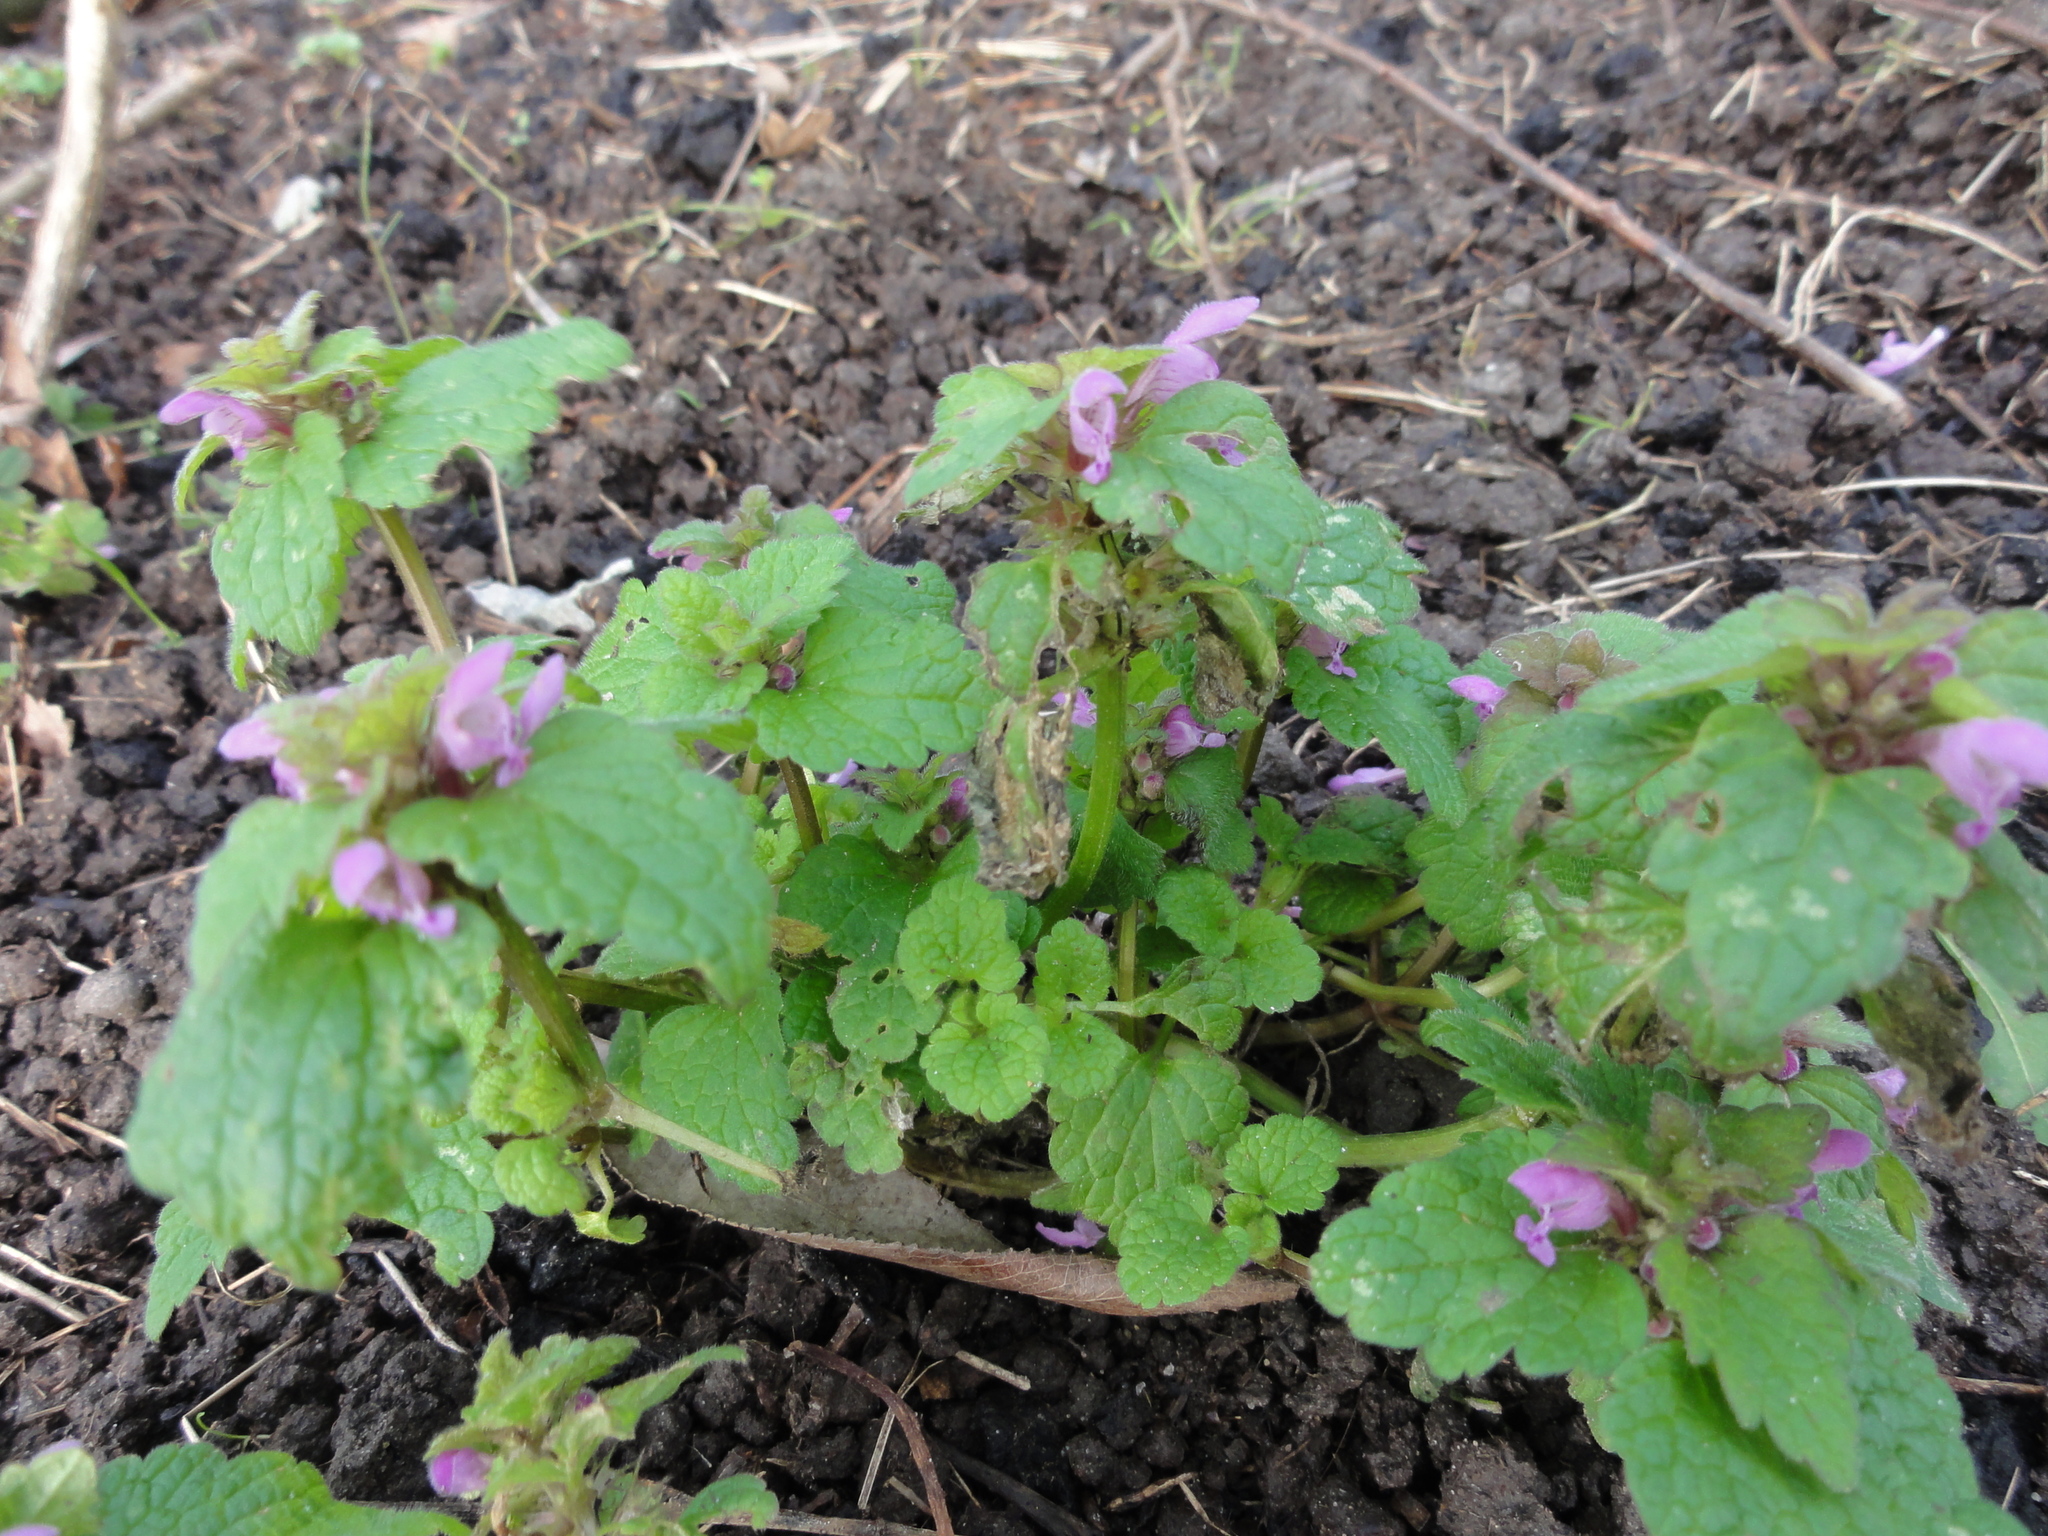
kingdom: Plantae
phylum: Tracheophyta
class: Magnoliopsida
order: Lamiales
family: Lamiaceae
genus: Lamium
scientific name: Lamium purpureum
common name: Red dead-nettle
